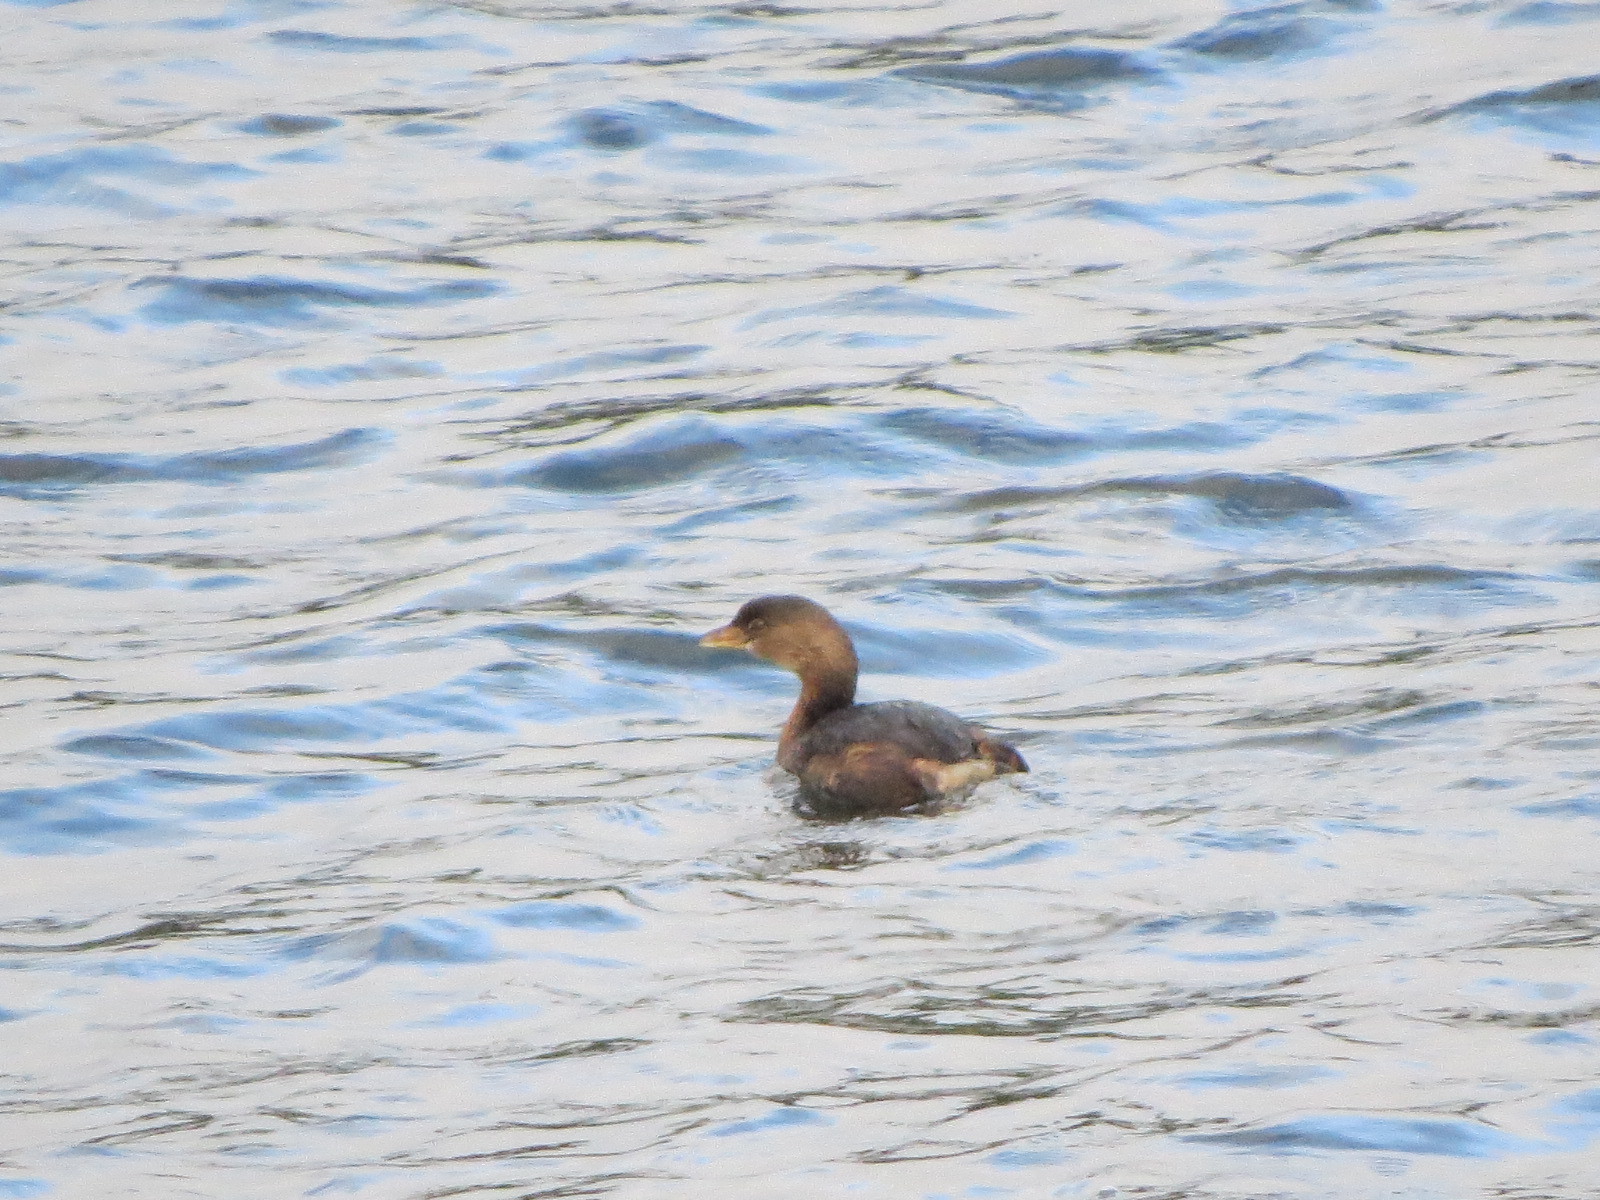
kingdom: Animalia
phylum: Chordata
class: Aves
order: Podicipediformes
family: Podicipedidae
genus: Podilymbus
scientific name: Podilymbus podiceps
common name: Pied-billed grebe
